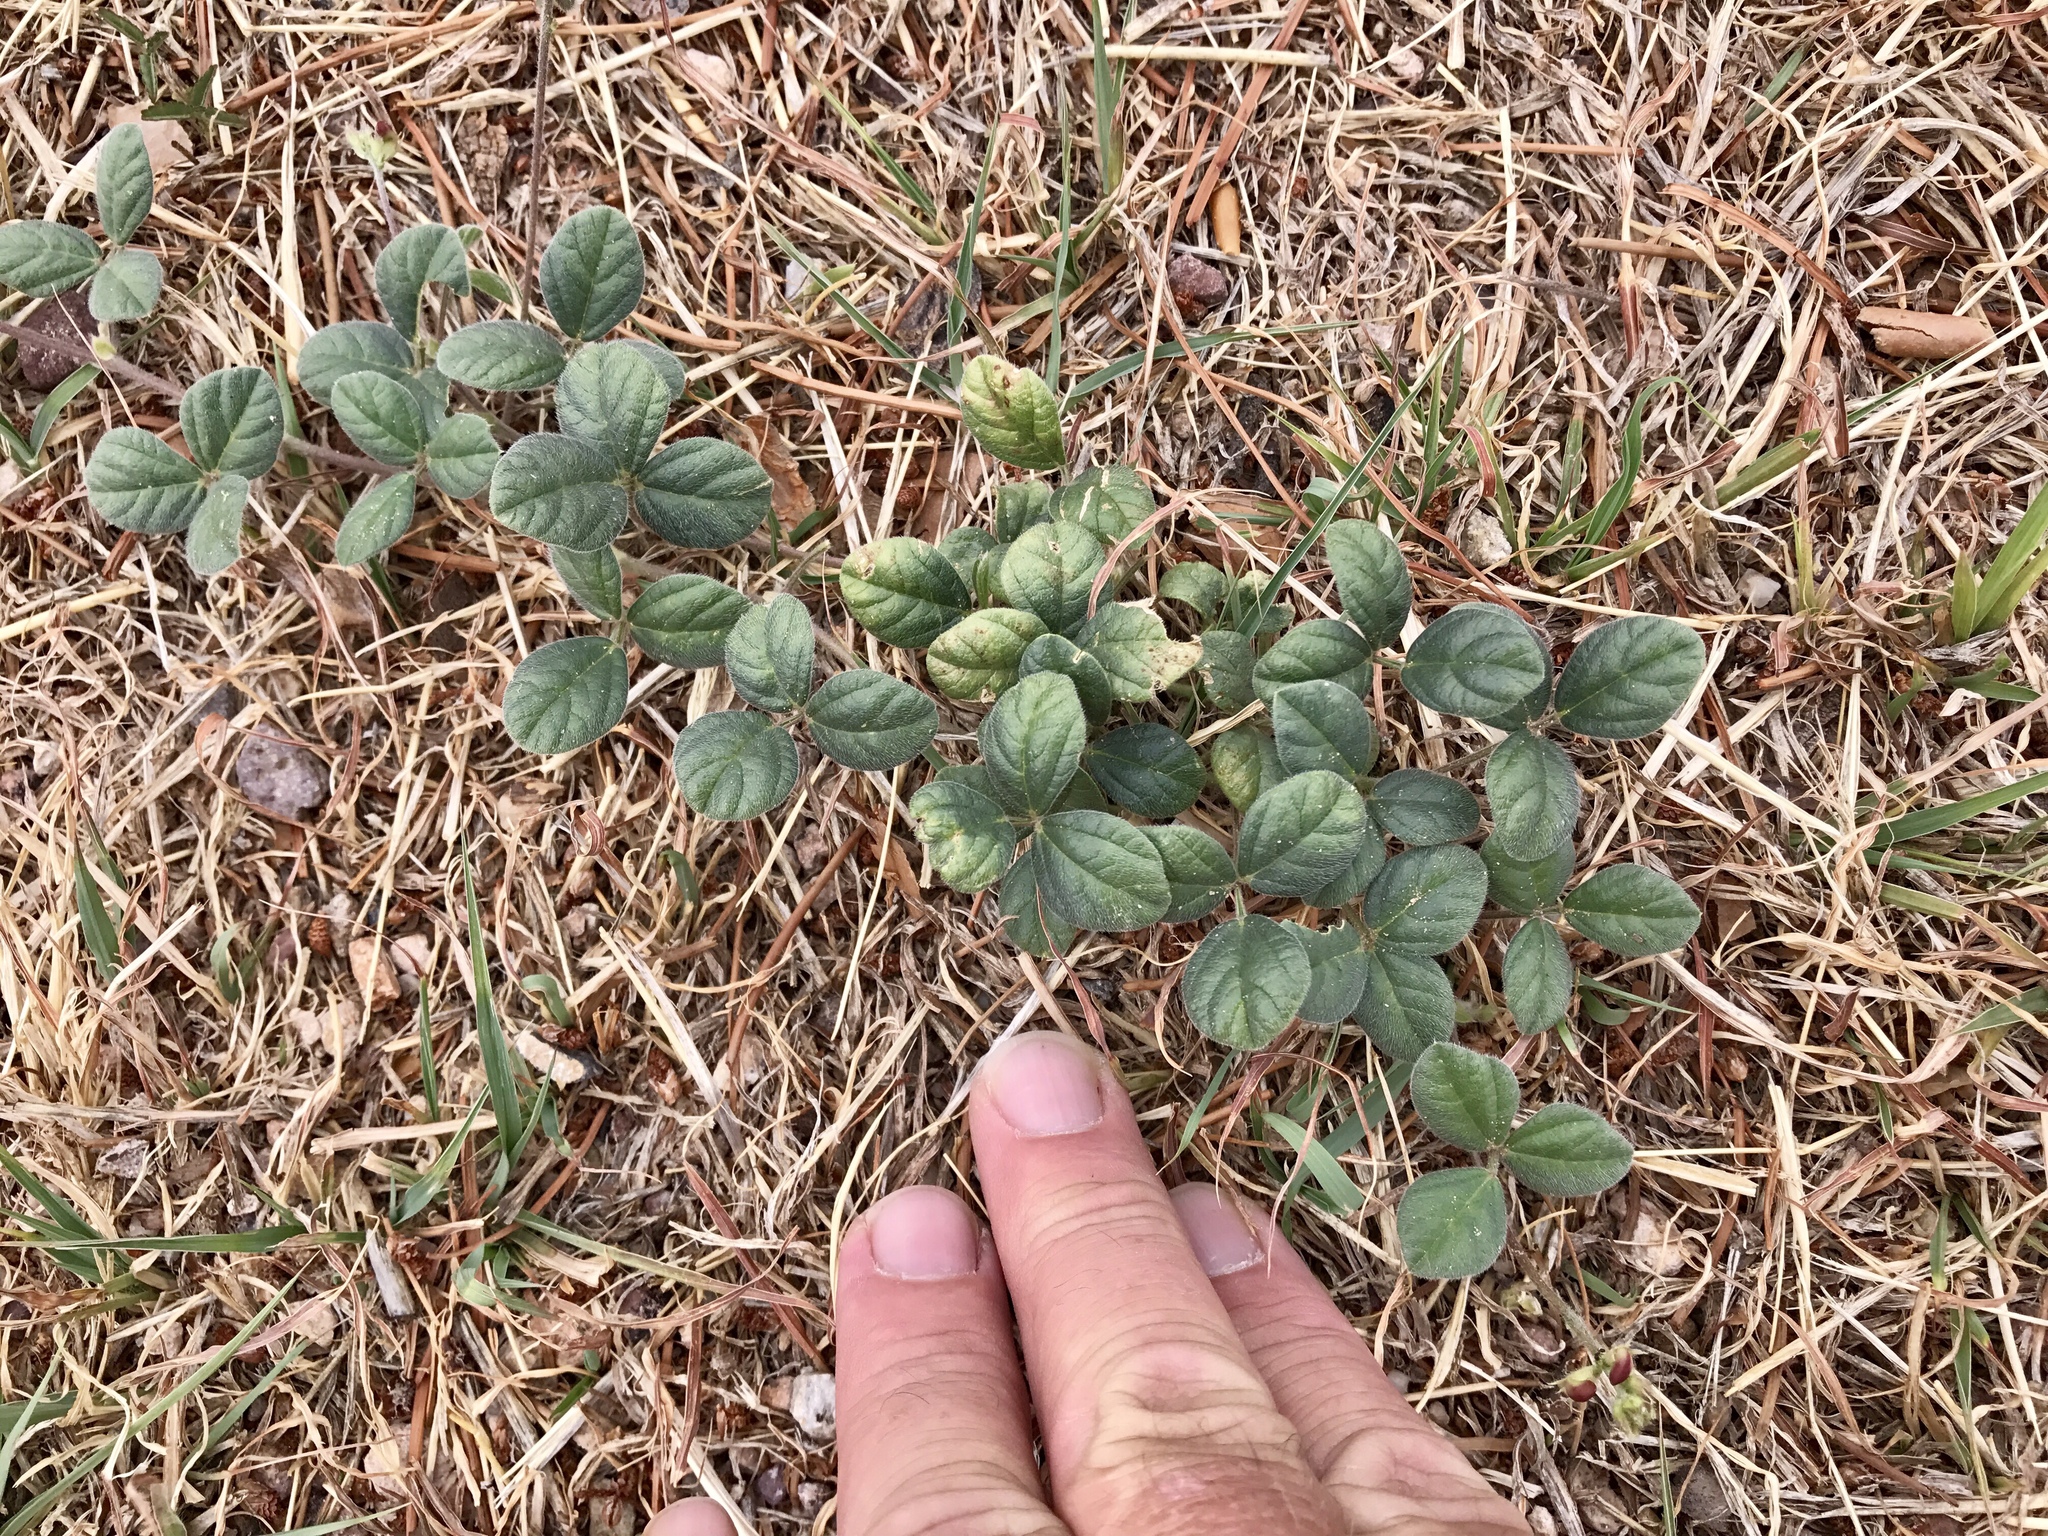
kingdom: Plantae
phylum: Tracheophyta
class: Magnoliopsida
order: Fabales
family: Fabaceae
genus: Macroptilium
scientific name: Macroptilium gibbosifolium
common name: Variableleaf bushbean
